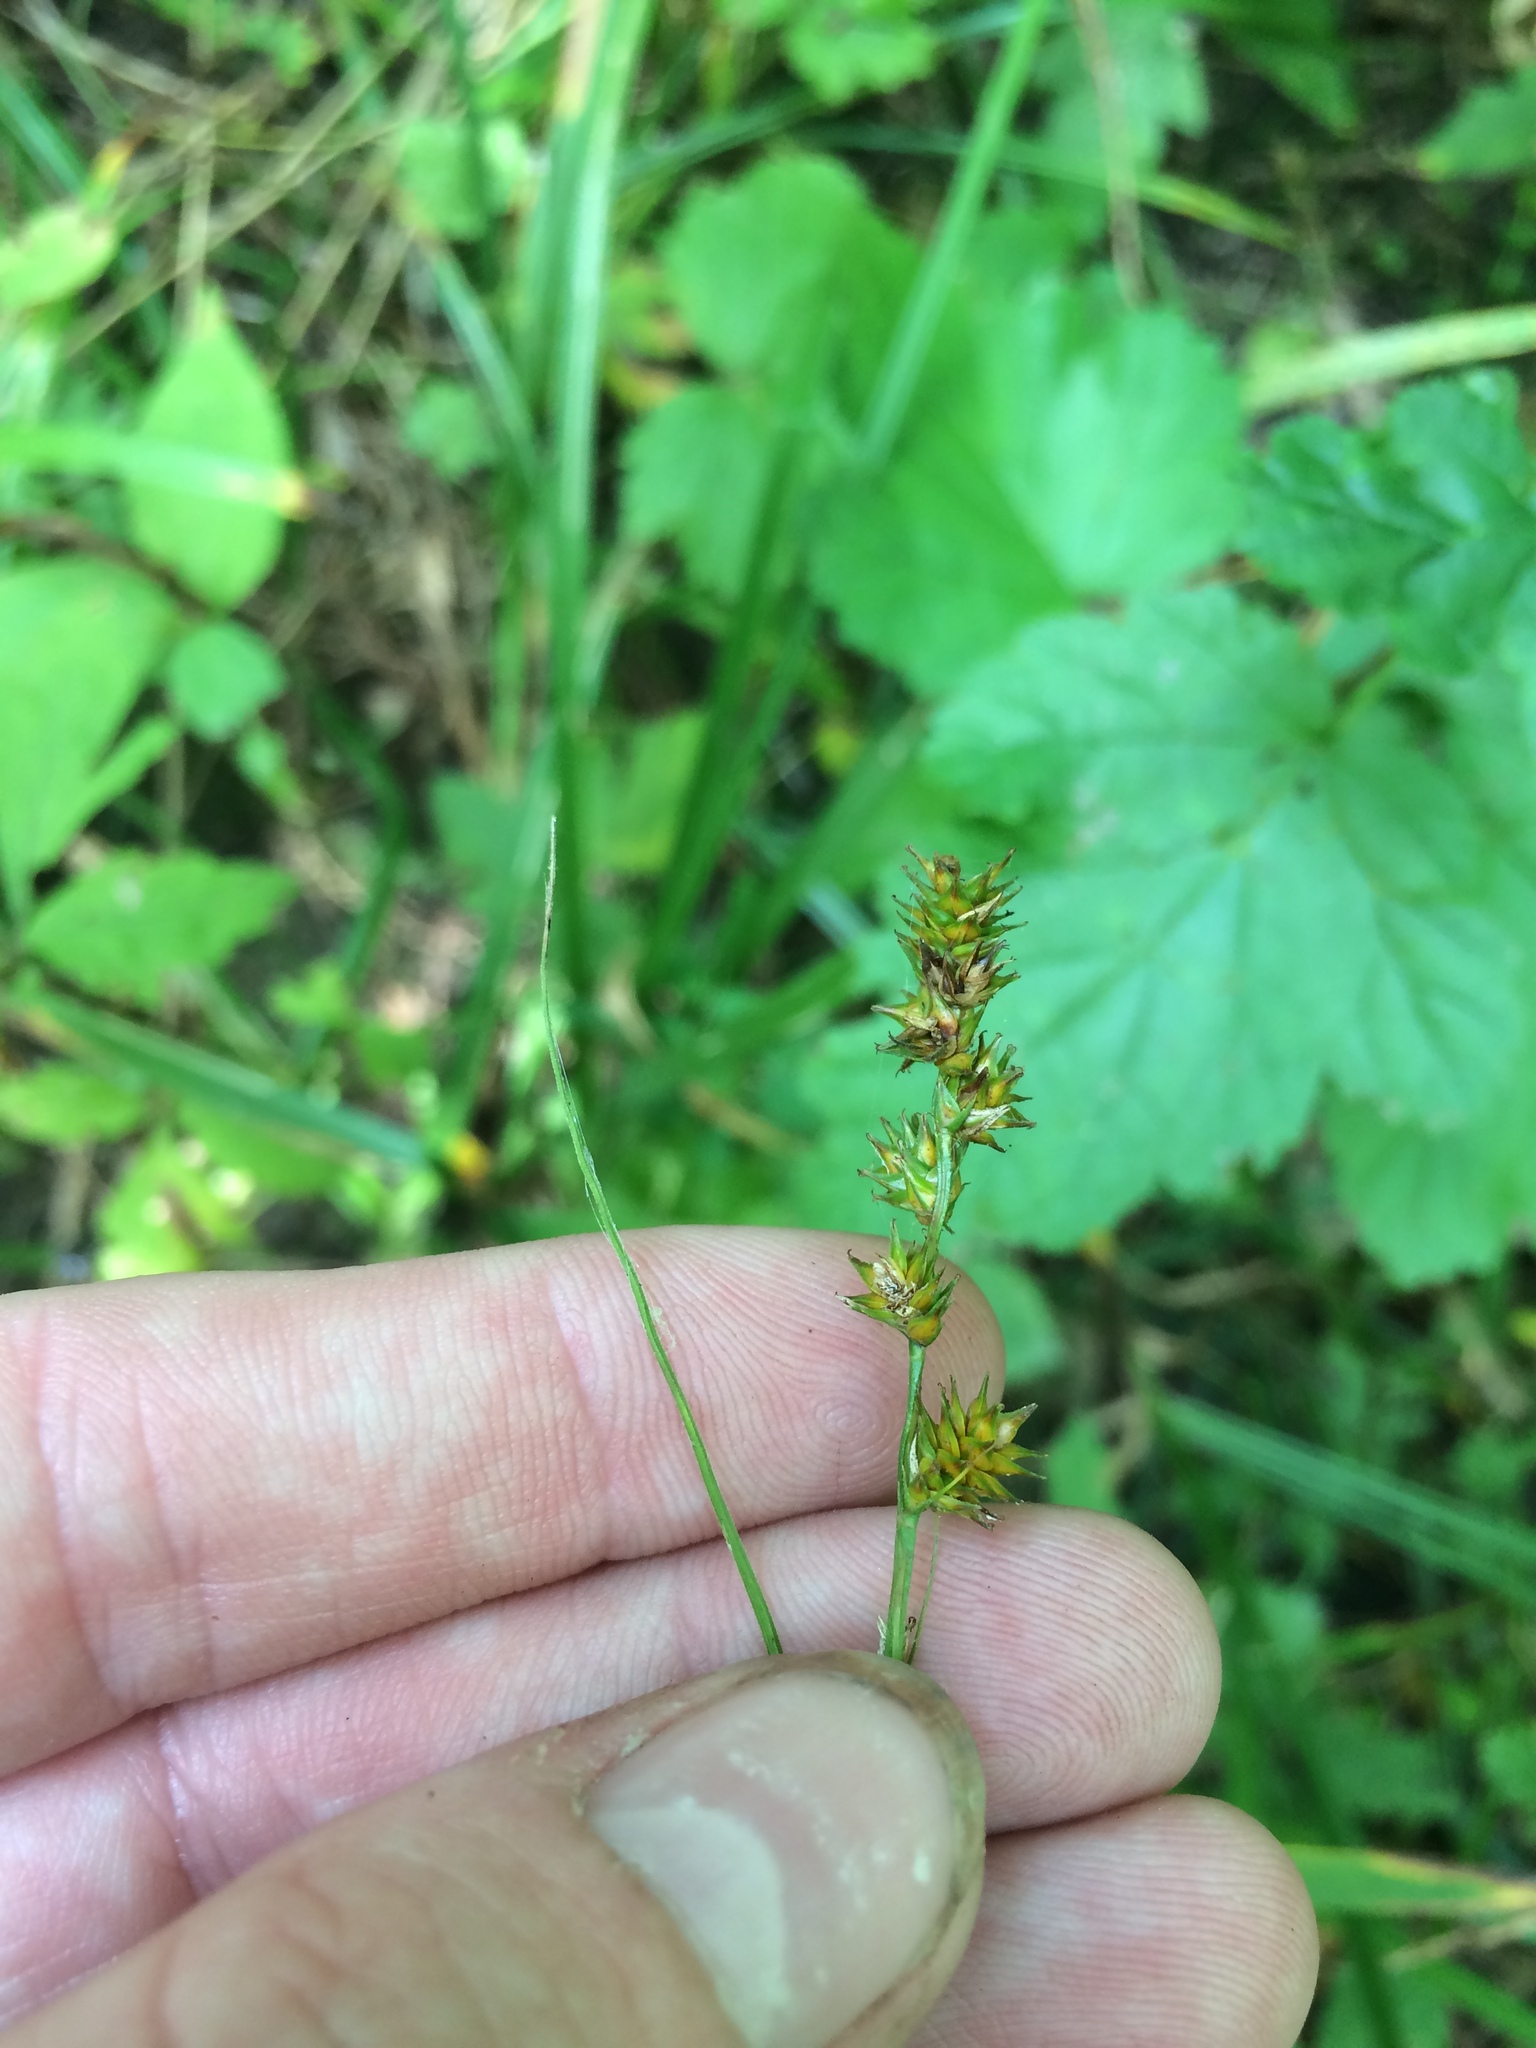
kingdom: Plantae
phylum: Tracheophyta
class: Liliopsida
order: Poales
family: Cyperaceae
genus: Carex
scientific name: Carex sparganioides
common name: Burreed sedge
